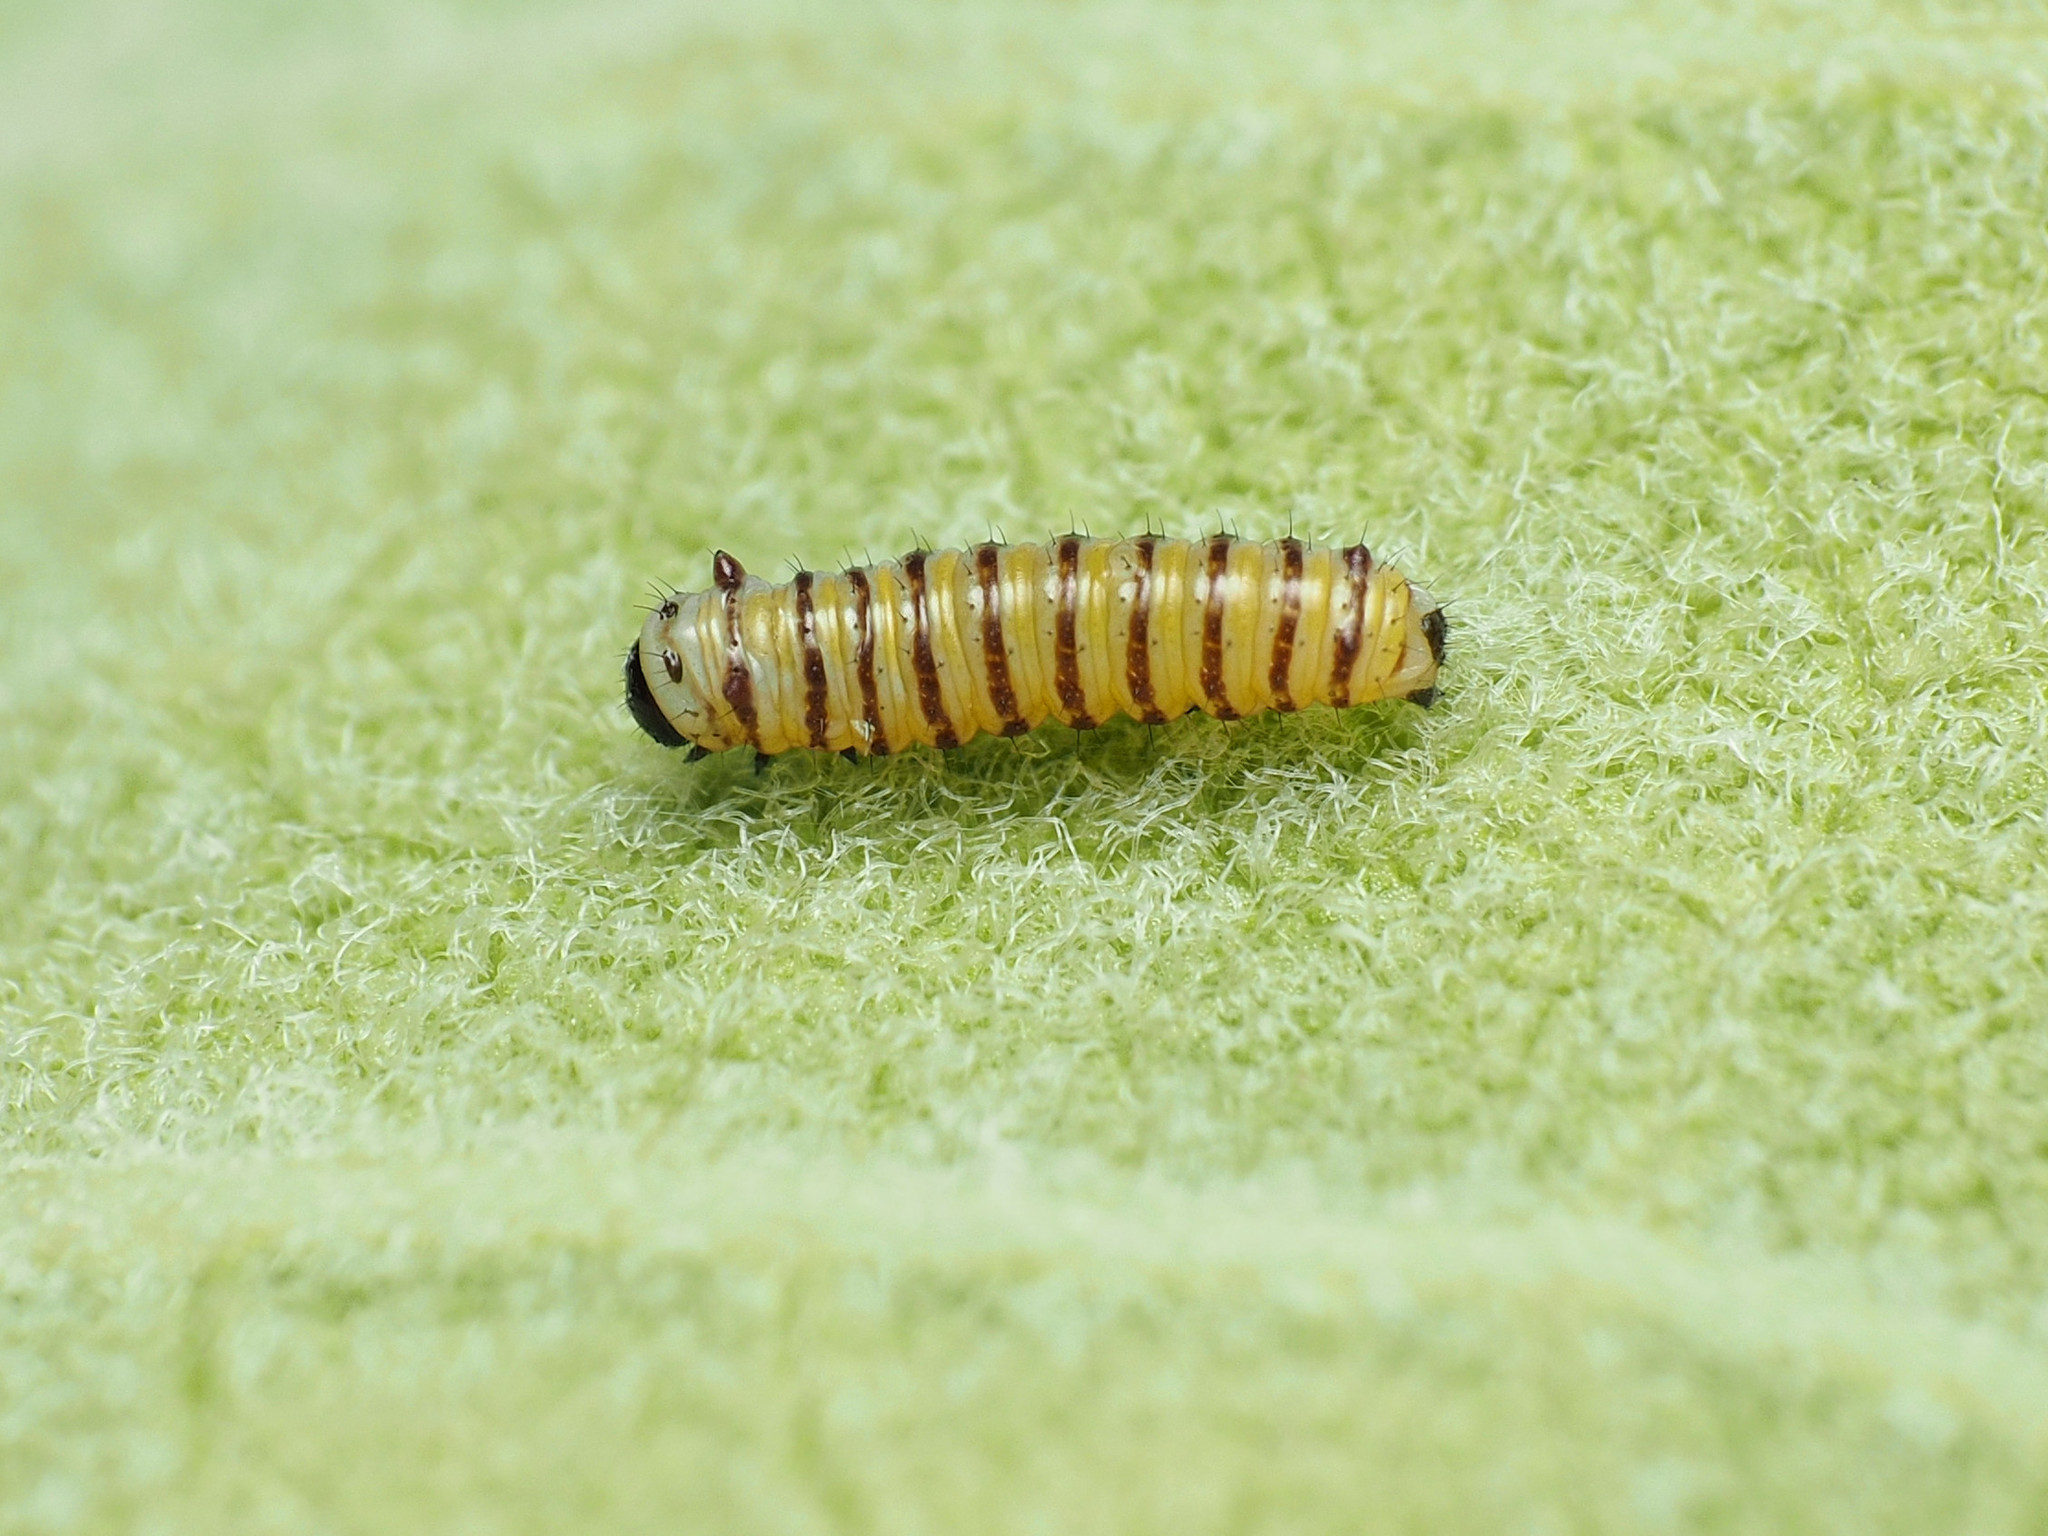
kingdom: Animalia
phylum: Arthropoda
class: Insecta
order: Lepidoptera
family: Nymphalidae
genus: Danaus
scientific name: Danaus plexippus
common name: Monarch
